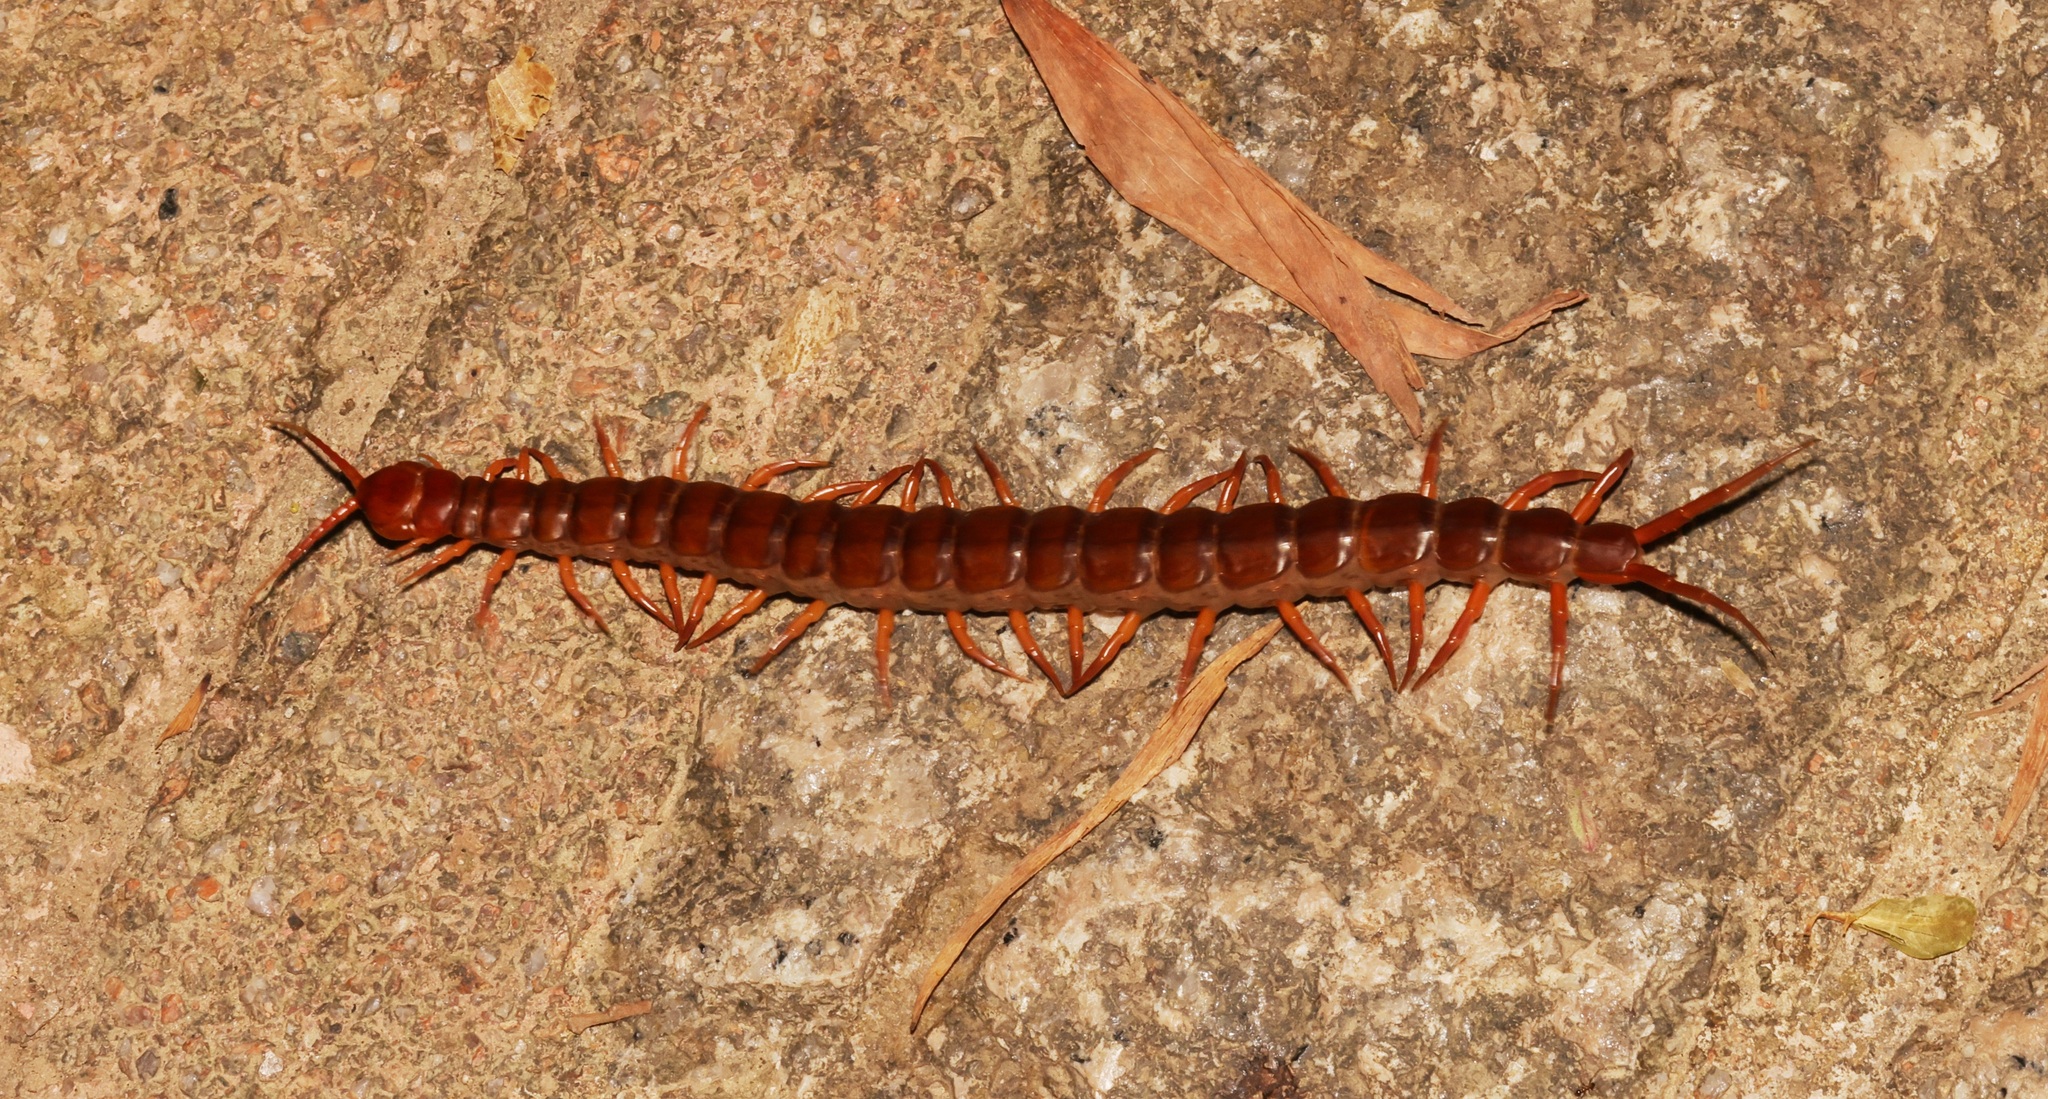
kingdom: Animalia
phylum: Arthropoda
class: Chilopoda
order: Scolopendromorpha
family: Scolopendridae
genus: Scolopendra
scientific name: Scolopendra dehaani
